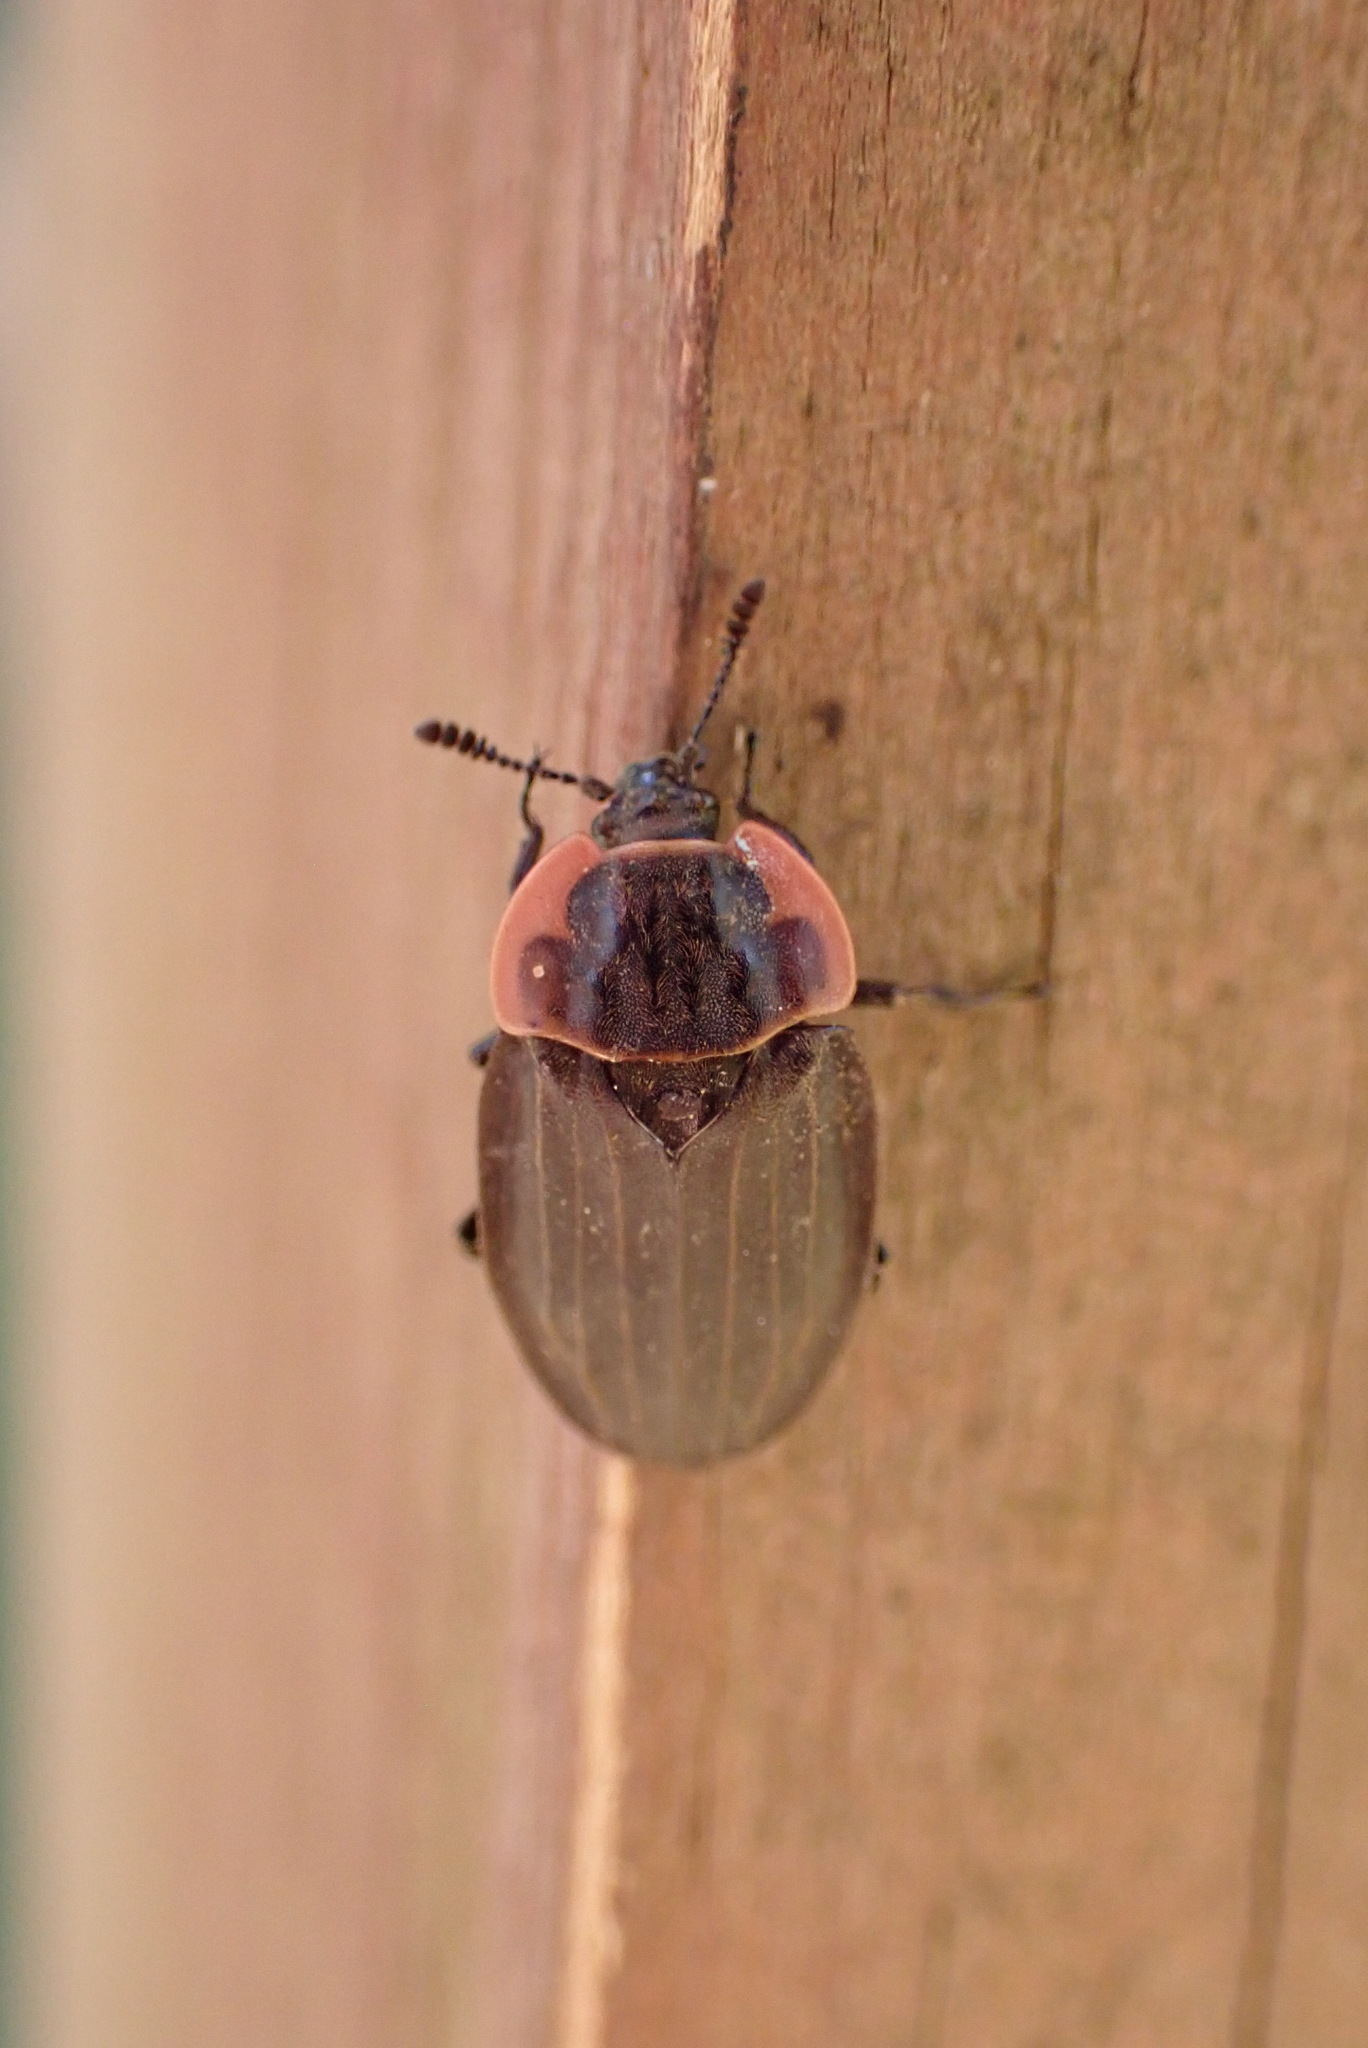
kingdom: Animalia
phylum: Arthropoda
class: Insecta
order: Coleoptera
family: Staphylinidae
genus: Oiceoptoma
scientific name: Oiceoptoma noveboracense
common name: Margined carrion beetle
